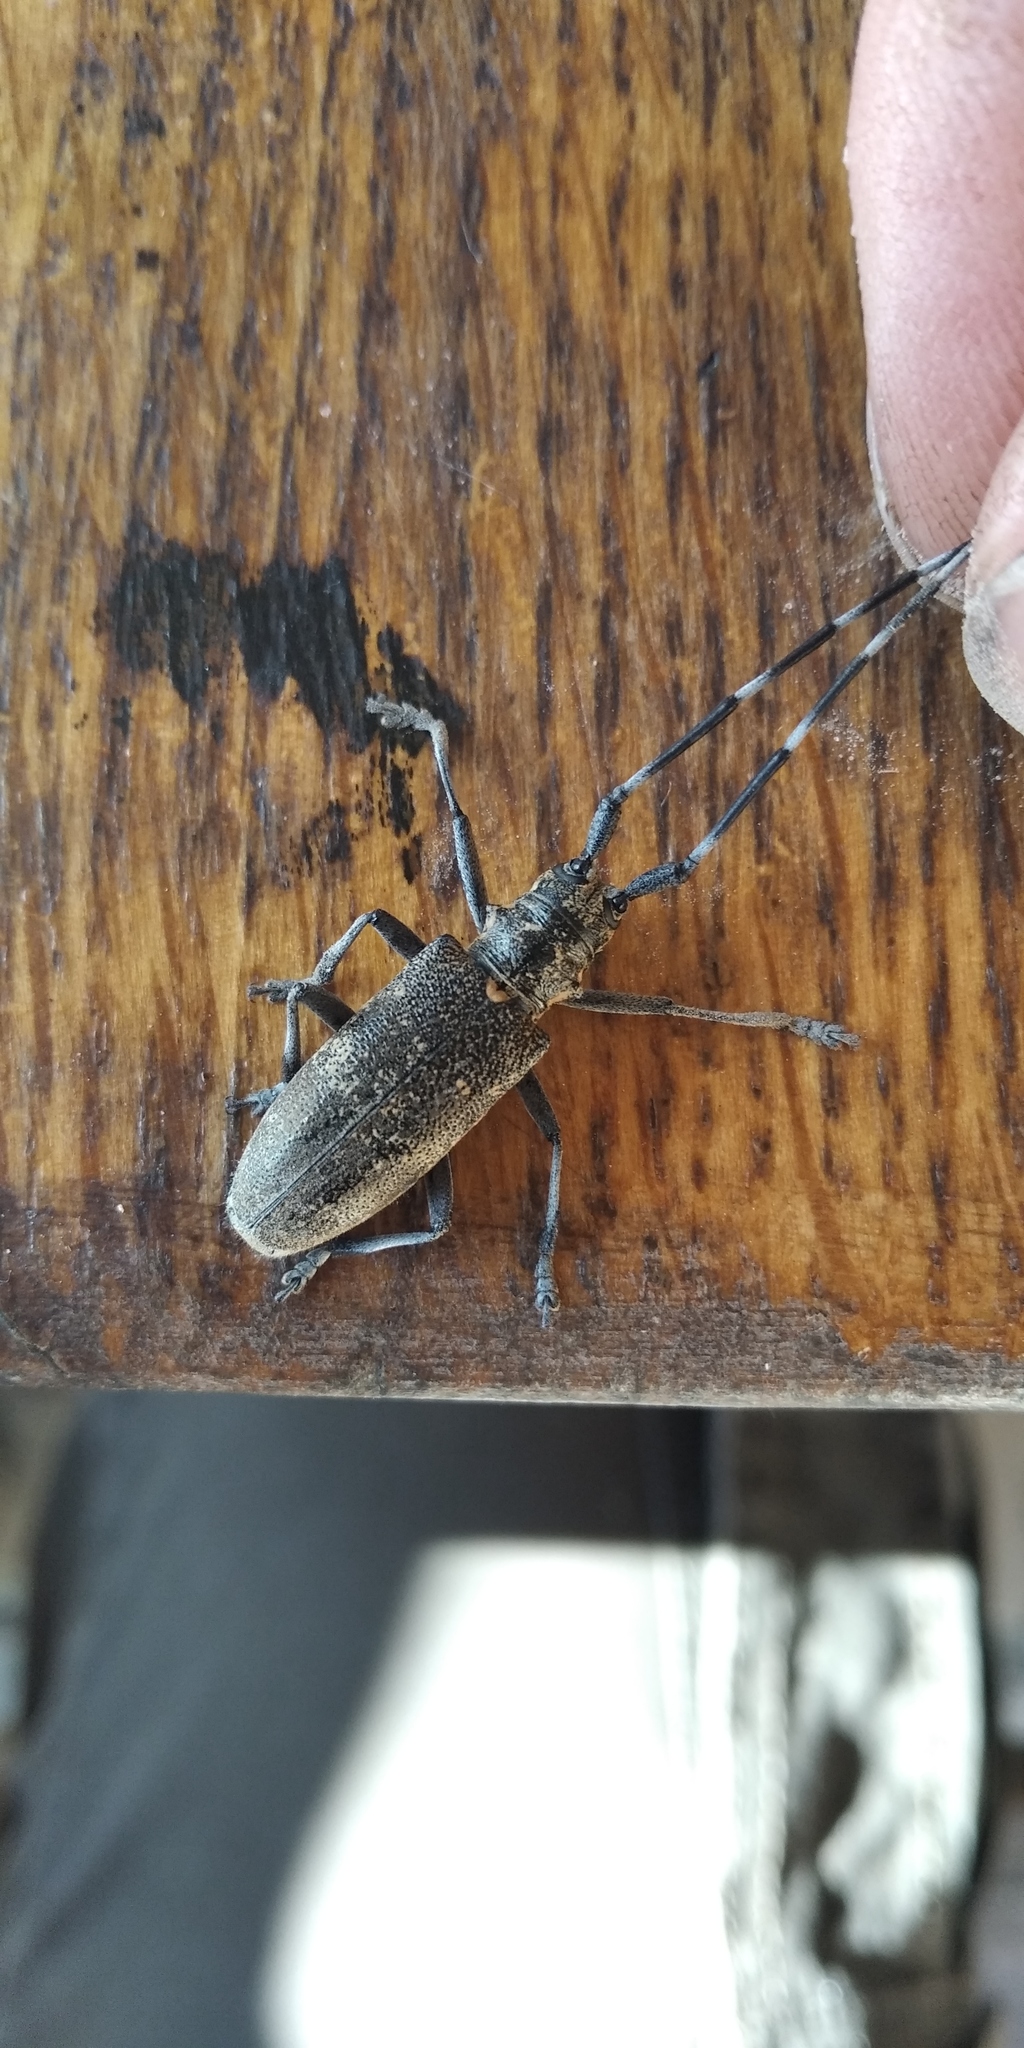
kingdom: Animalia
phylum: Arthropoda
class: Insecta
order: Coleoptera
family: Cerambycidae
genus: Monochamus
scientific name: Monochamus galloprovincialis
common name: Pine sawyer
